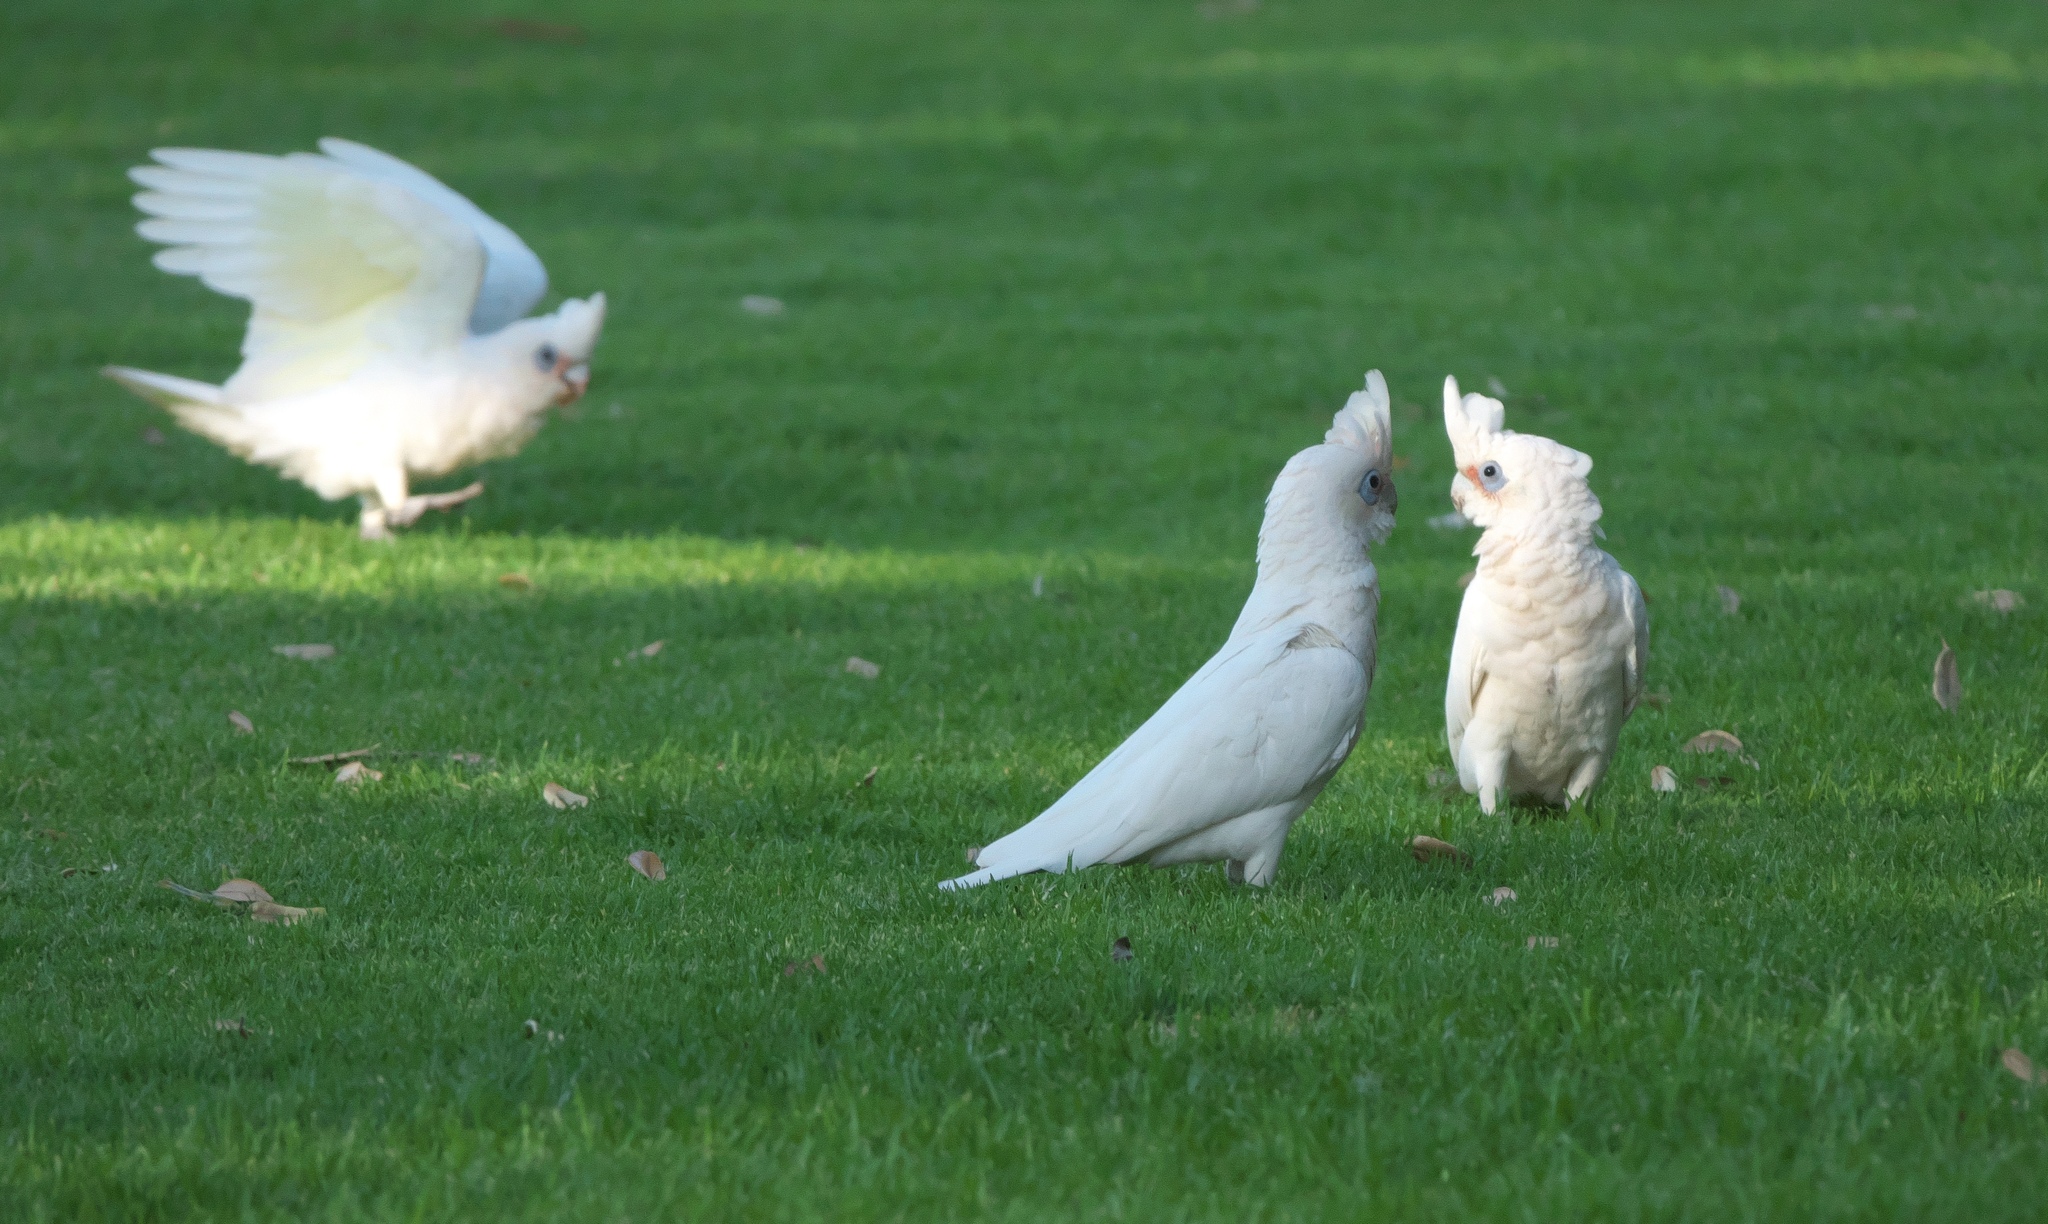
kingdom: Animalia
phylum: Chordata
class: Aves
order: Psittaciformes
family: Psittacidae
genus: Cacatua
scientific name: Cacatua sanguinea
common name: Little corella
